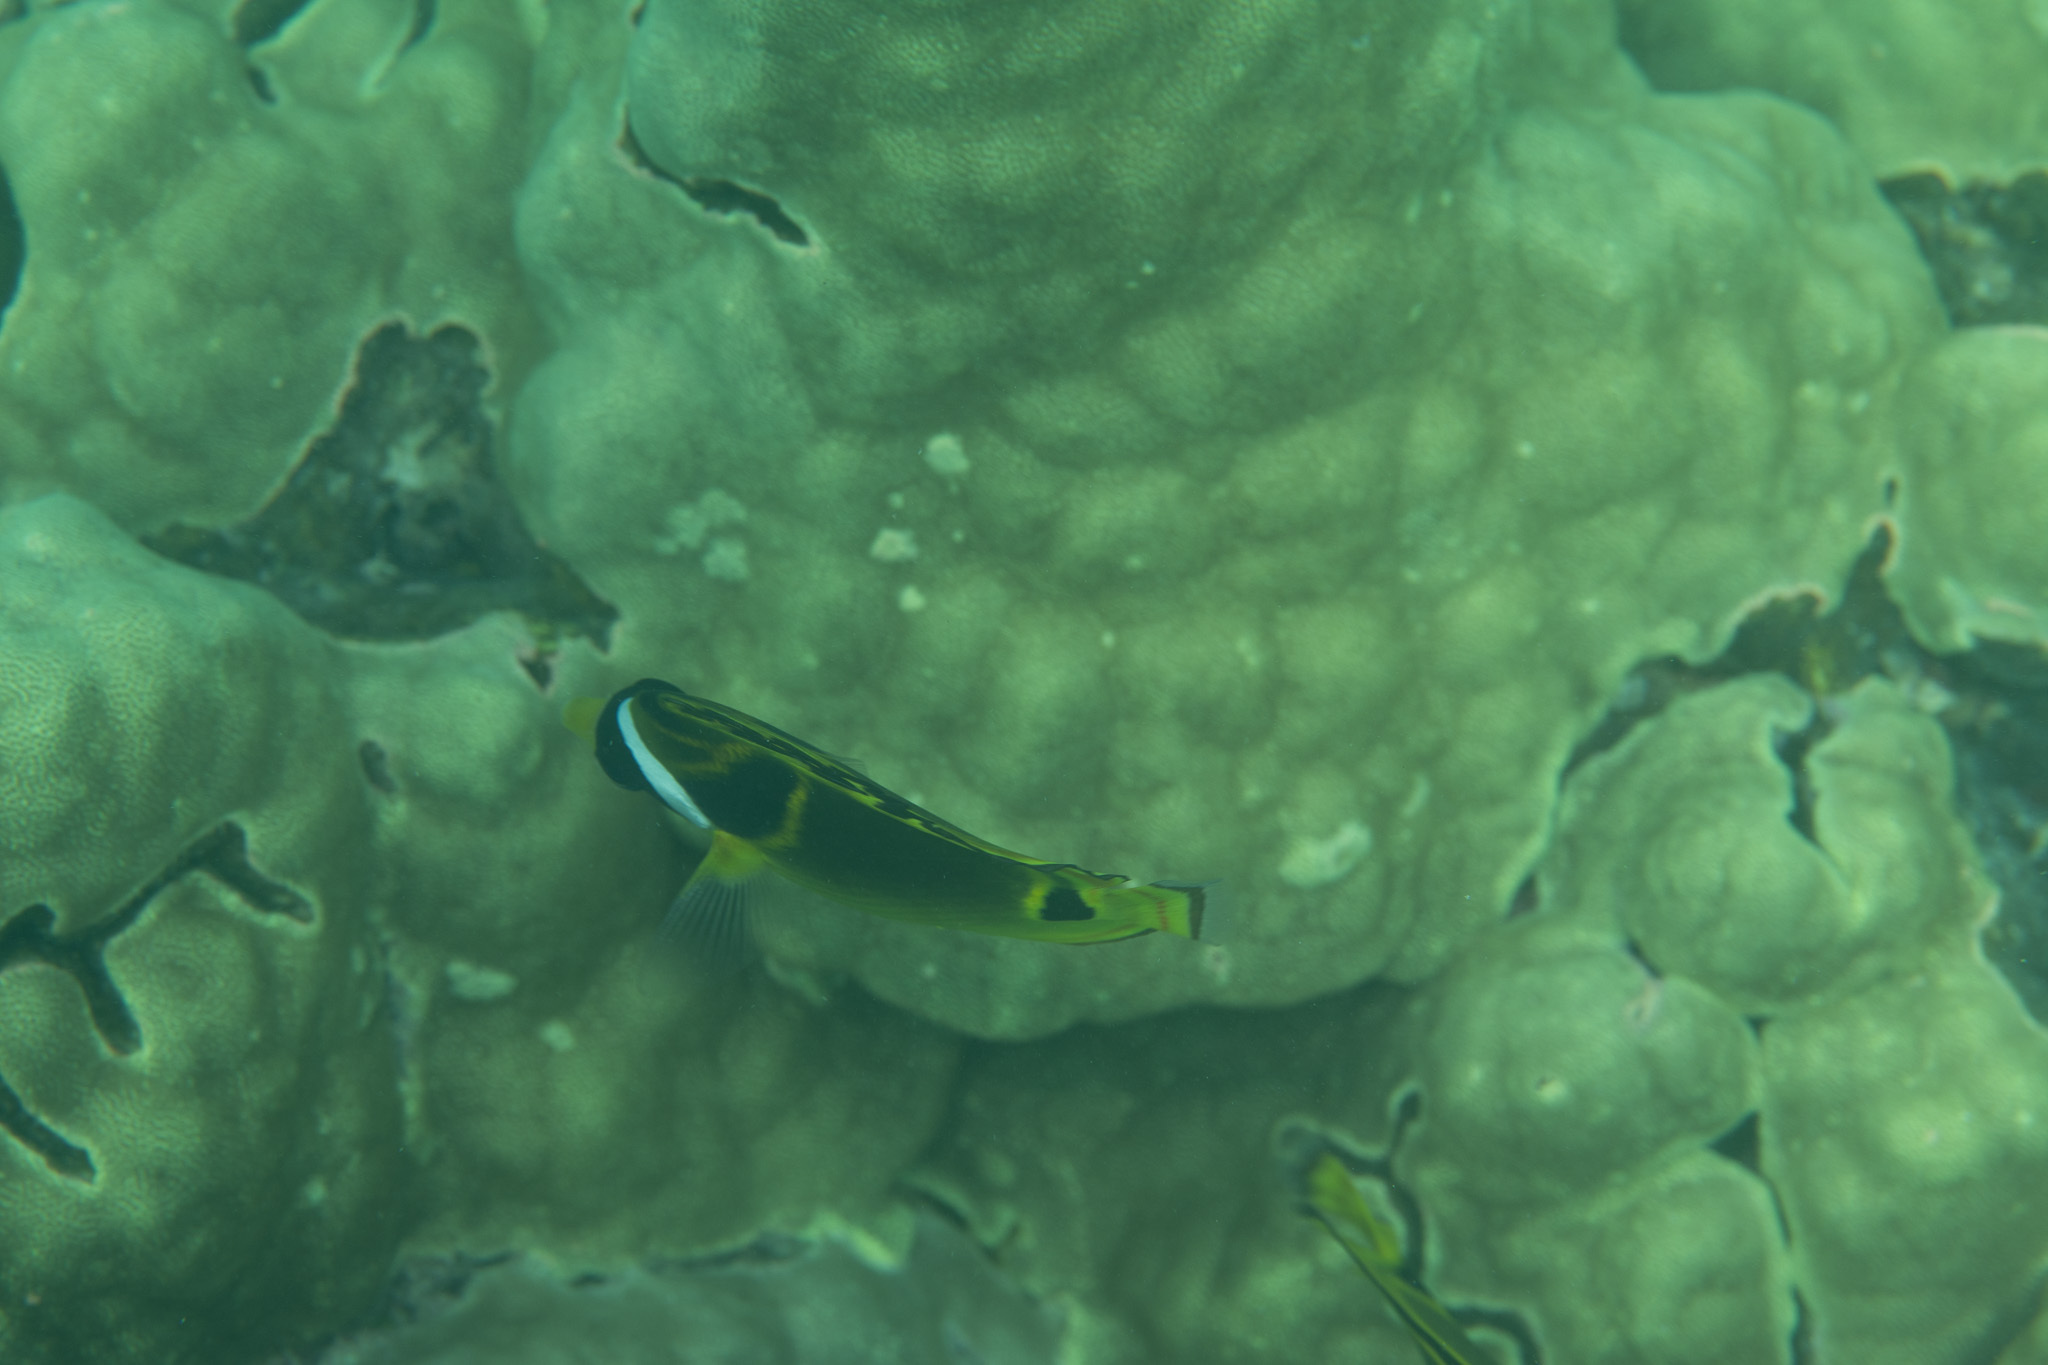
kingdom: Animalia
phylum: Chordata
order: Perciformes
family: Chaetodontidae
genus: Chaetodon
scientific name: Chaetodon lunula
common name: Raccoon butterflyfish
